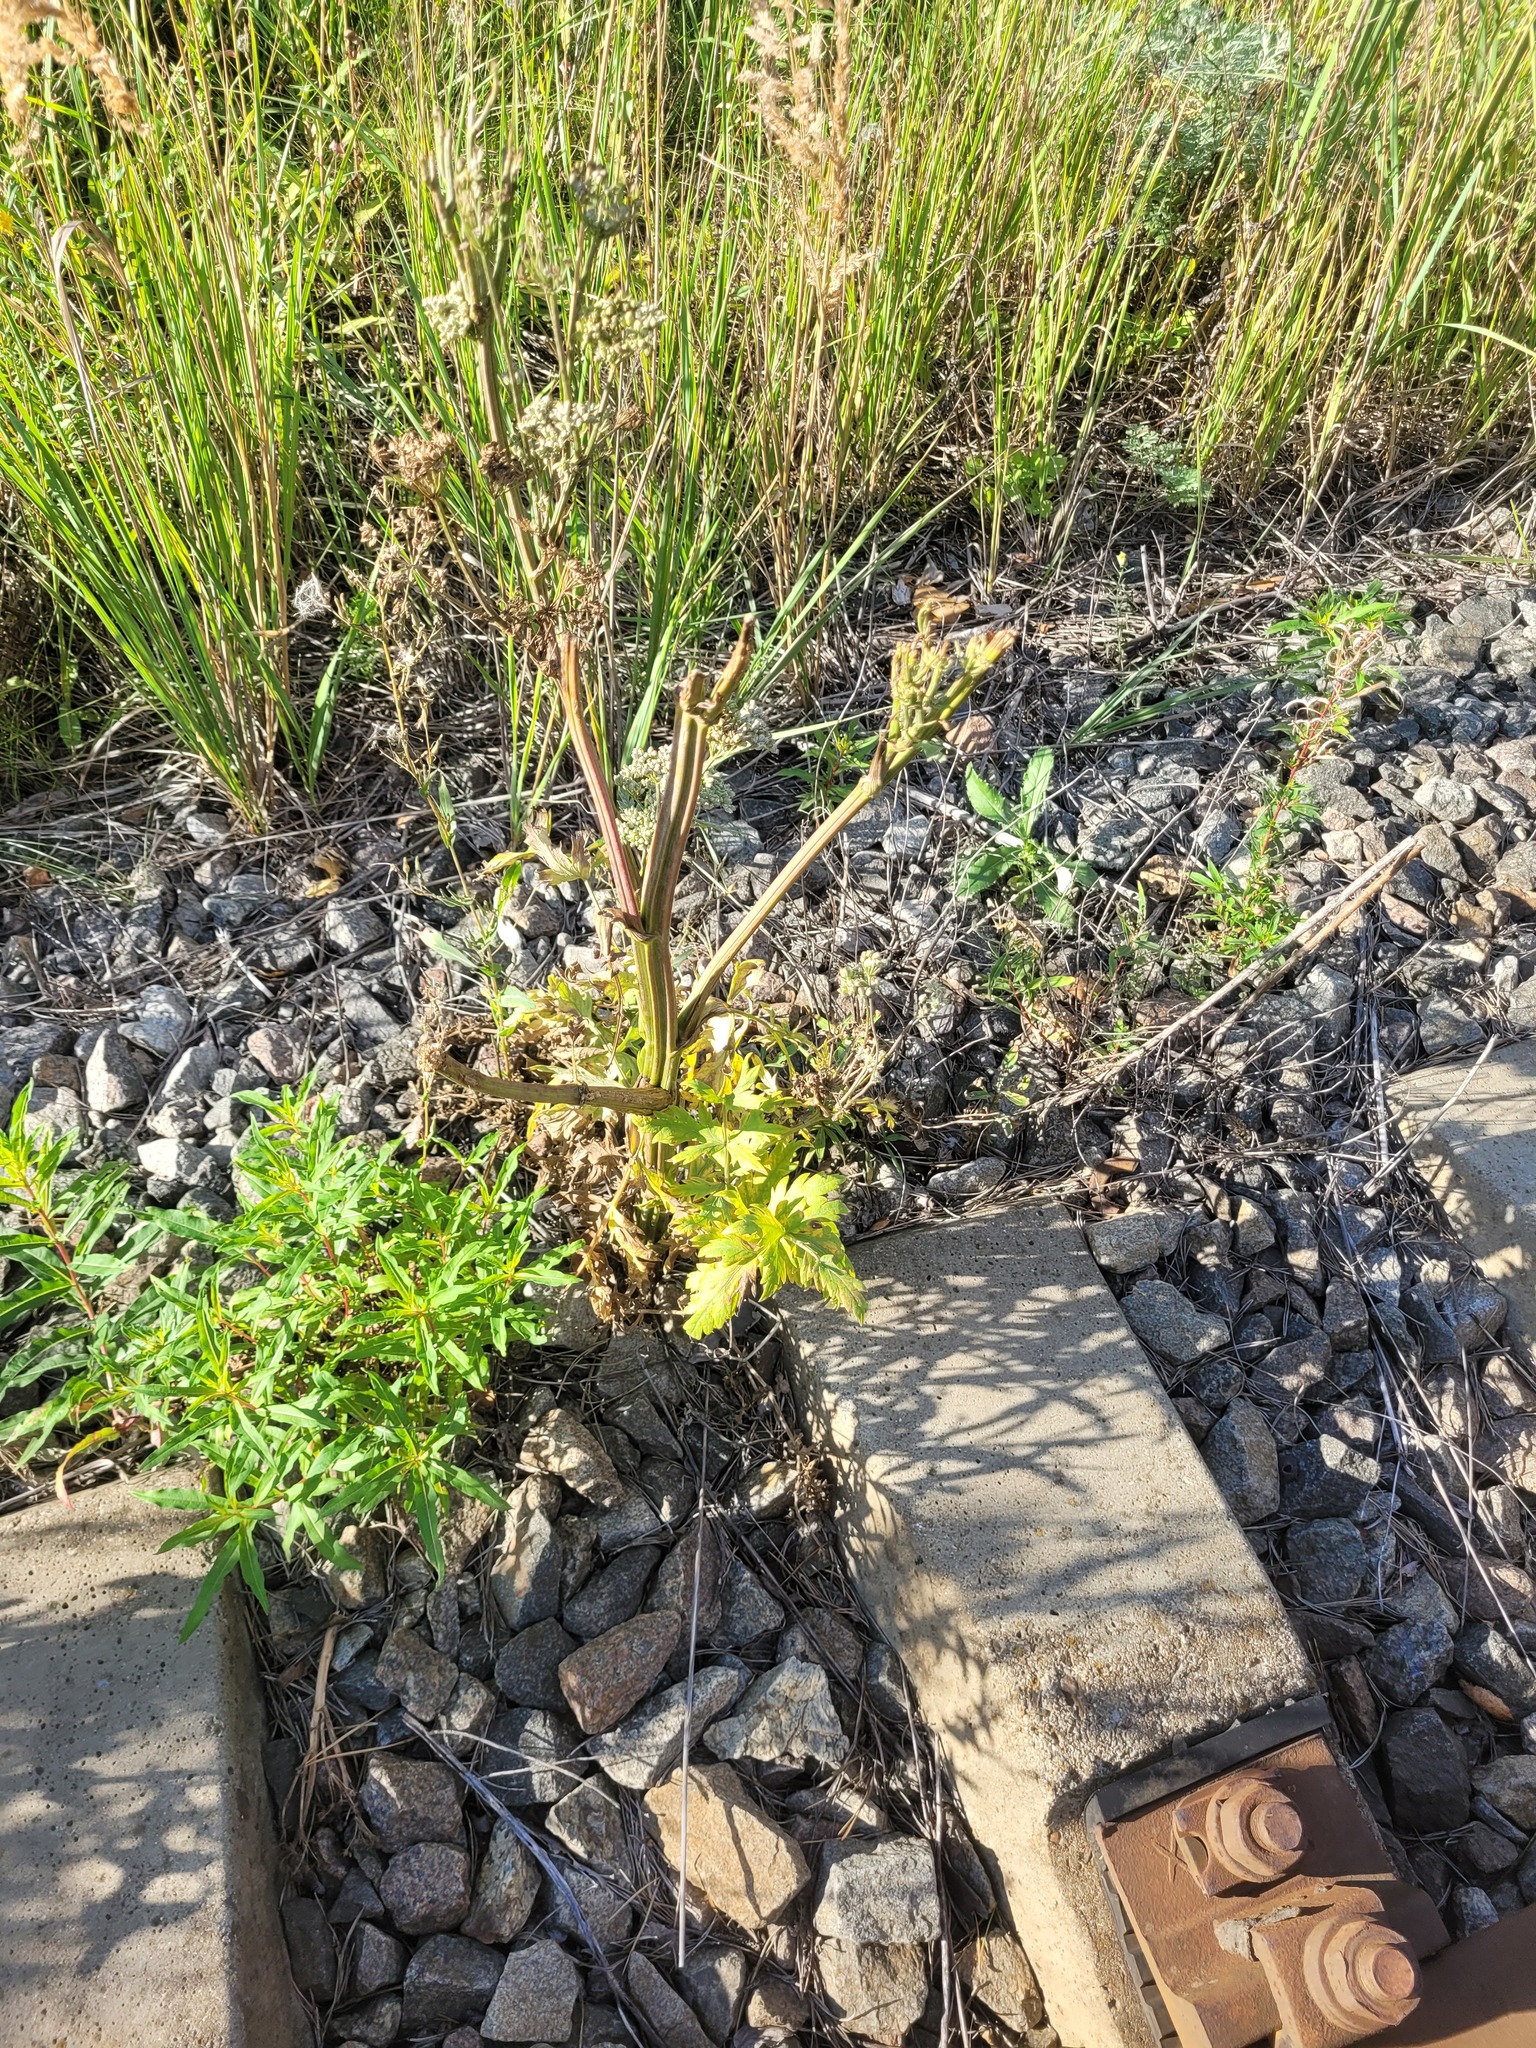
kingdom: Plantae
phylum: Tracheophyta
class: Magnoliopsida
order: Apiales
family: Apiaceae
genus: Seseli
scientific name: Seseli libanotis
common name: Mooncarrot
